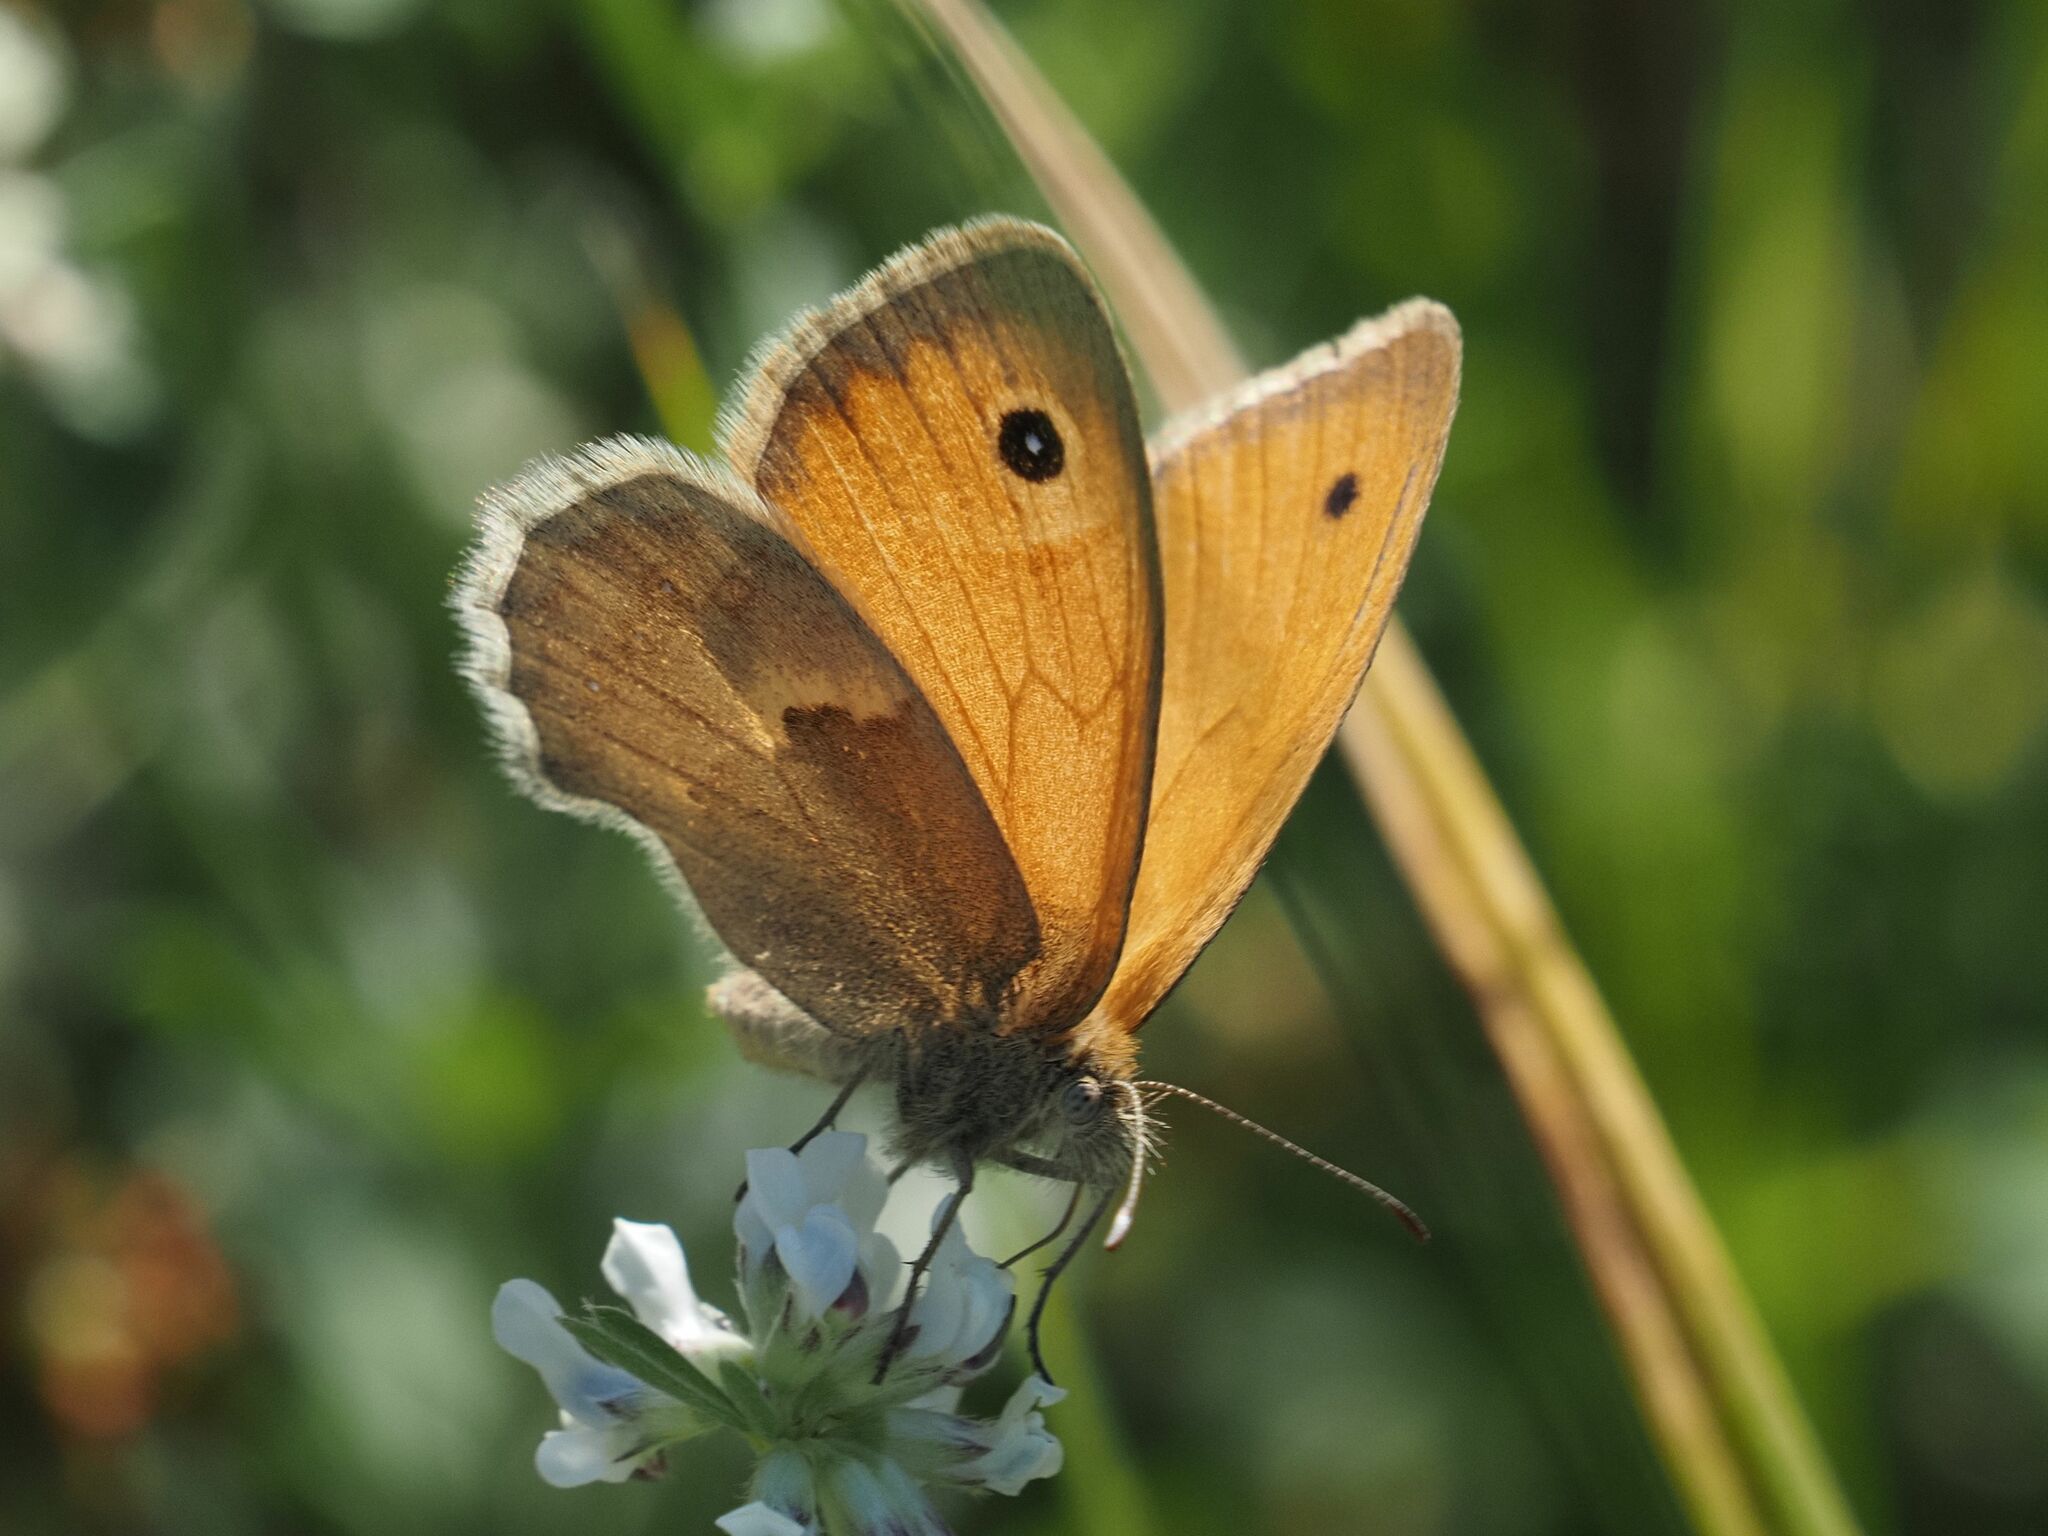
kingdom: Animalia
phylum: Arthropoda
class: Insecta
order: Lepidoptera
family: Nymphalidae
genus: Coenonympha
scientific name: Coenonympha pamphilus
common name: Small heath
